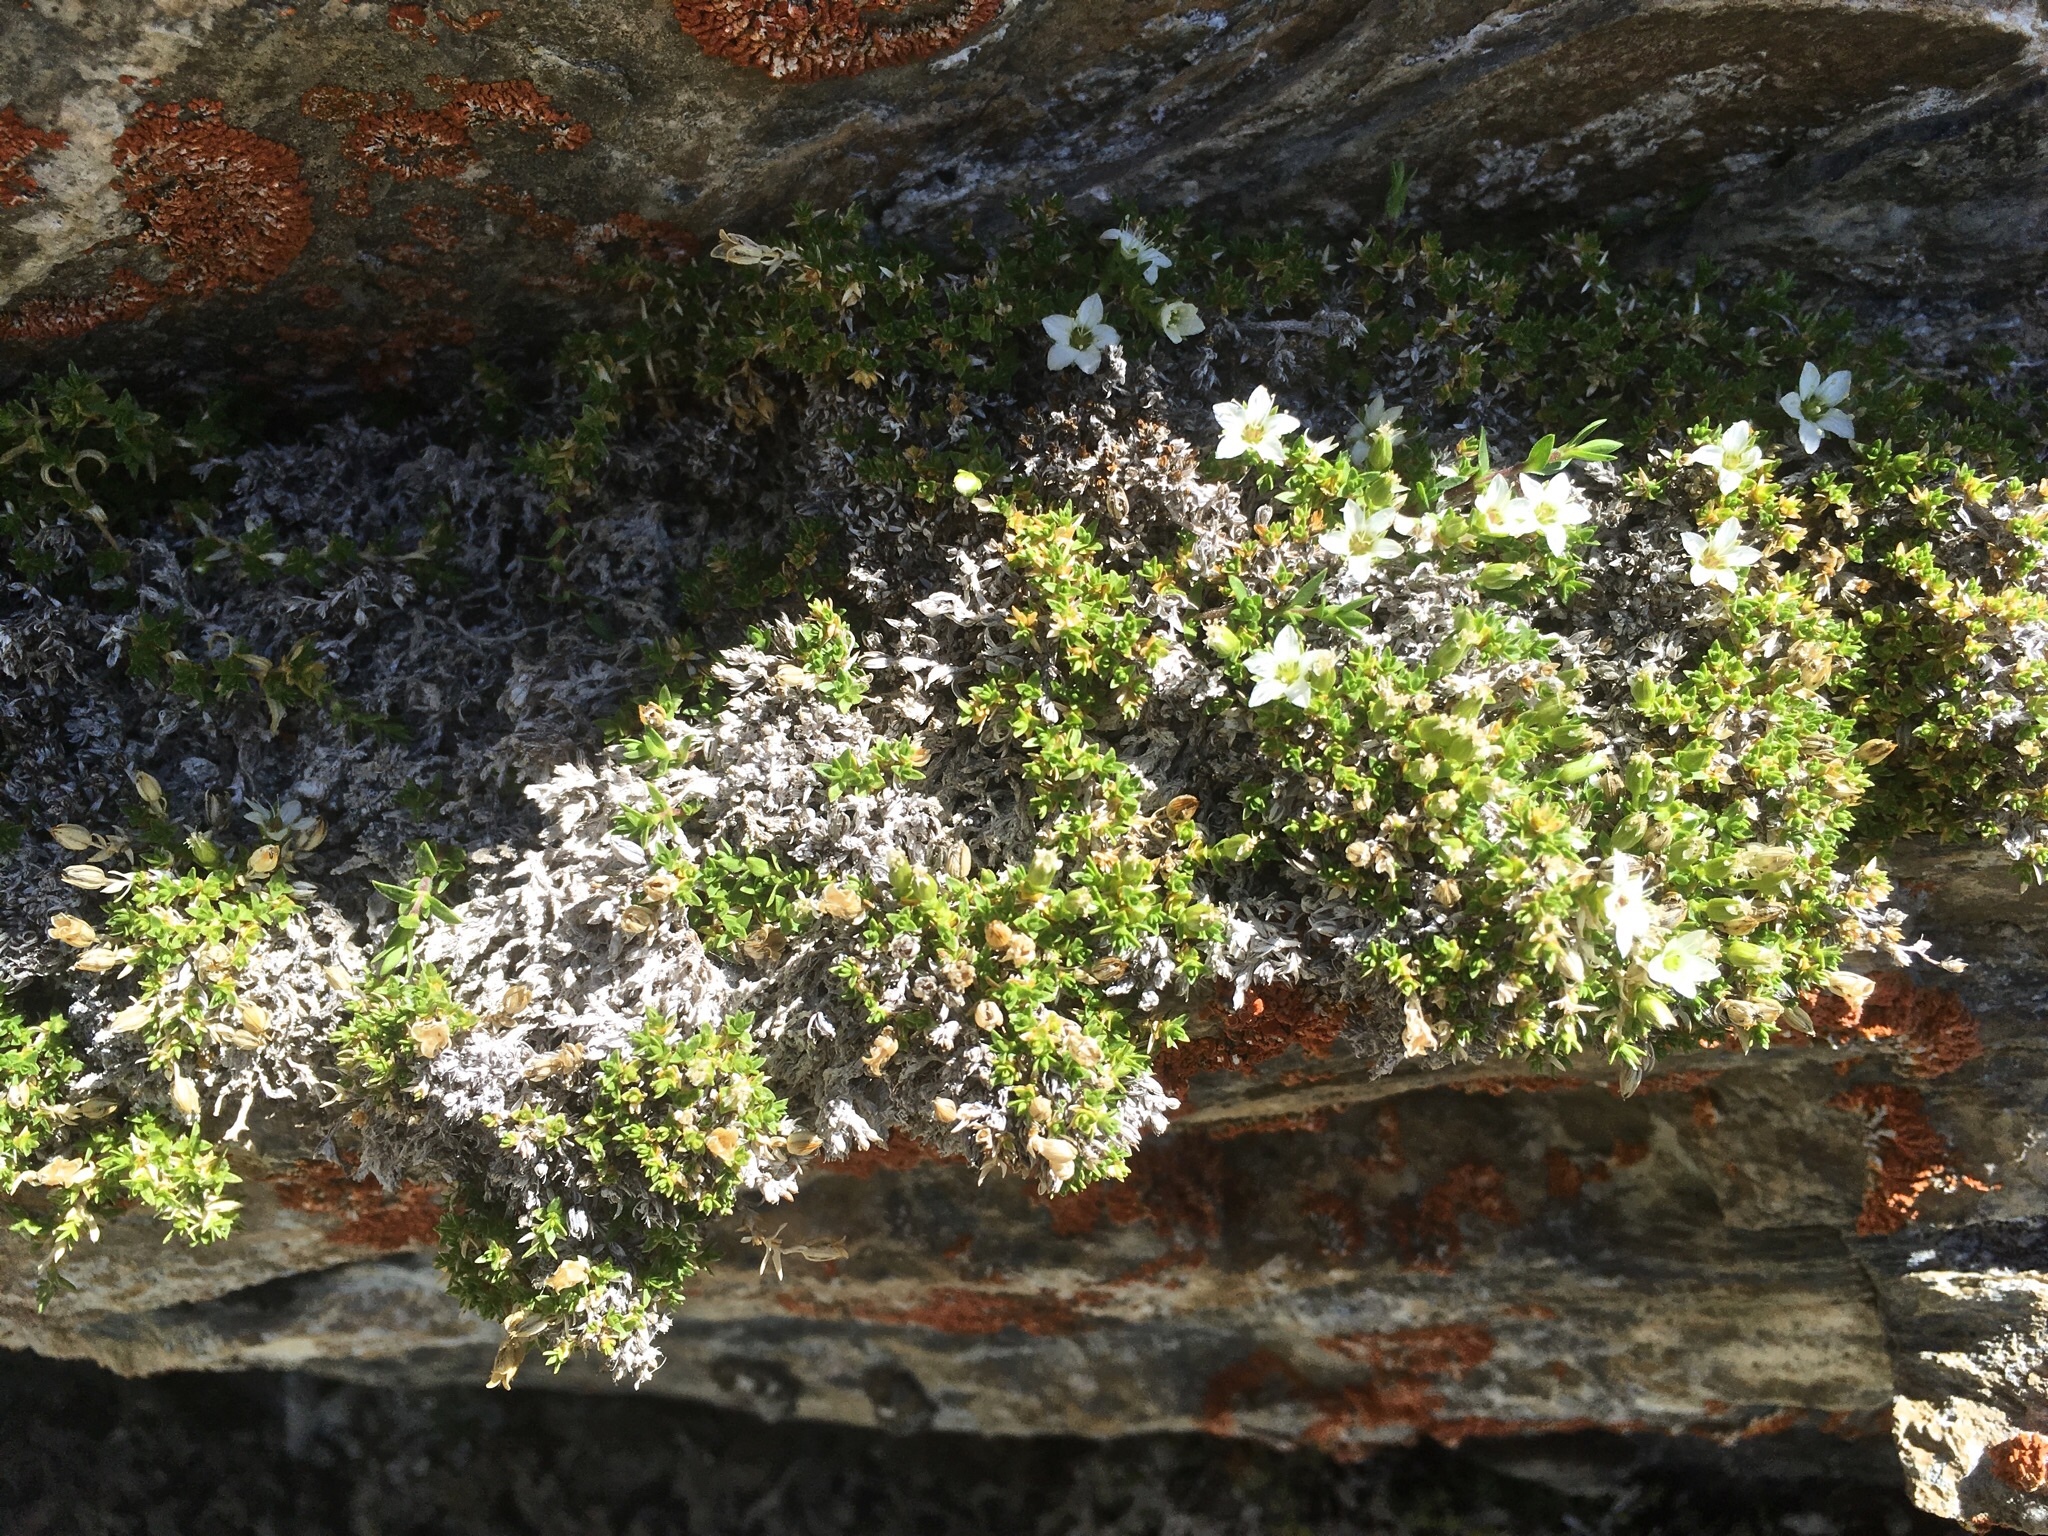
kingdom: Plantae
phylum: Tracheophyta
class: Magnoliopsida
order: Caryophyllales
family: Caryophyllaceae
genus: Facchinia
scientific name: Facchinia rupestris
